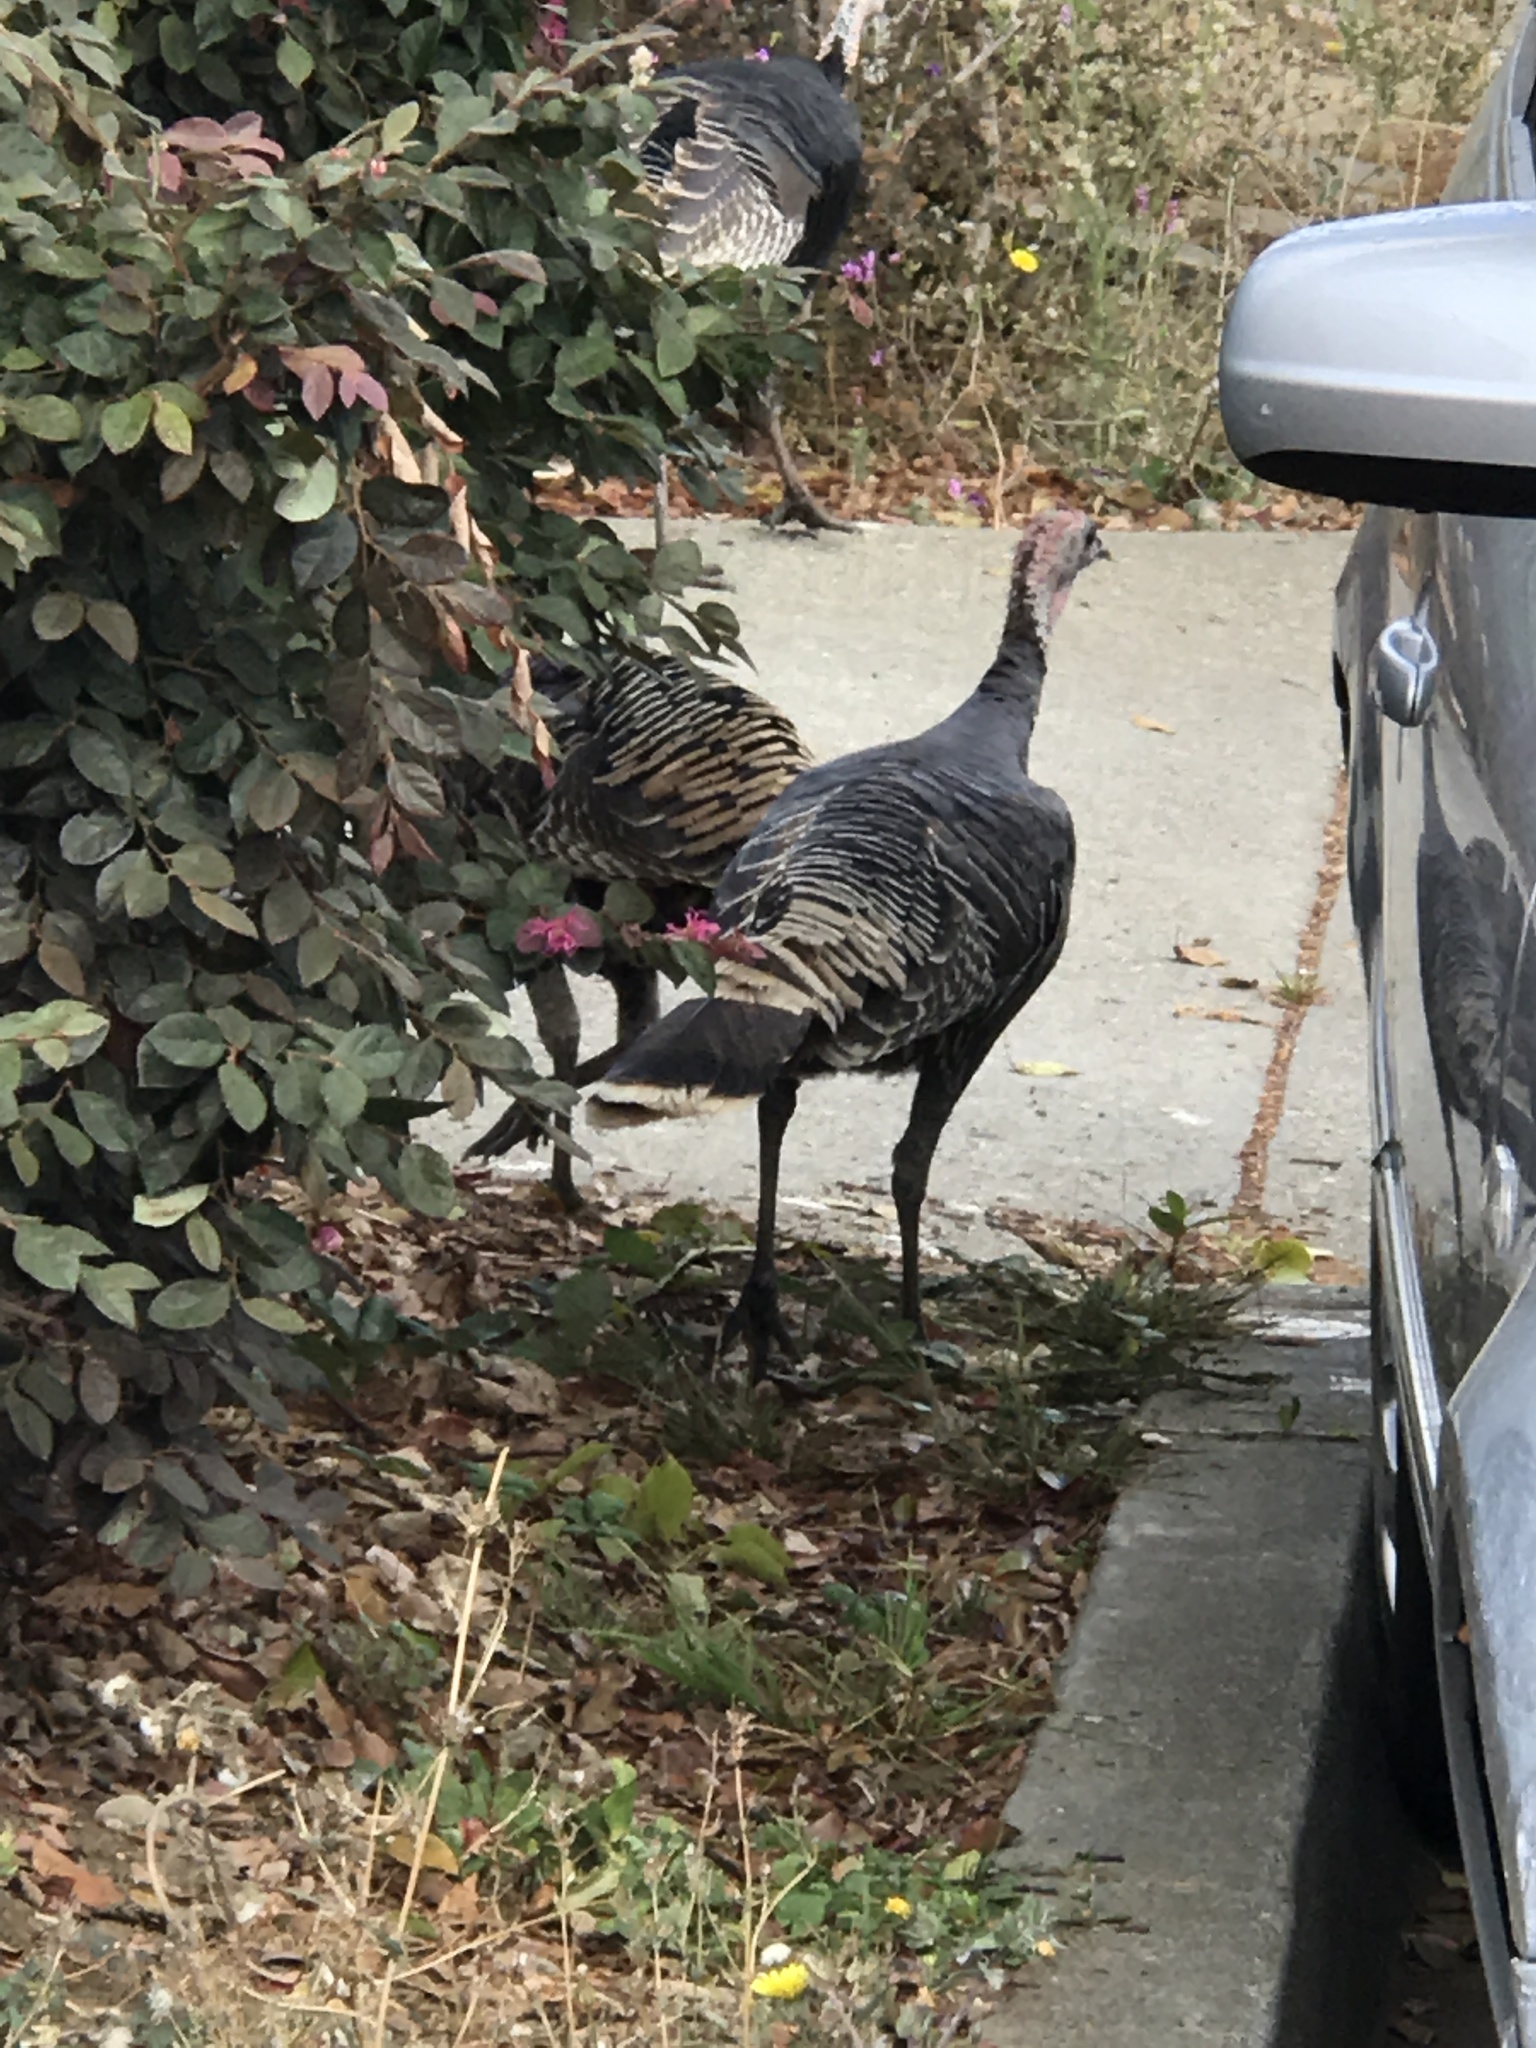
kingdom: Animalia
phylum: Chordata
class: Aves
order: Galliformes
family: Phasianidae
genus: Meleagris
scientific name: Meleagris gallopavo
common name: Wild turkey
